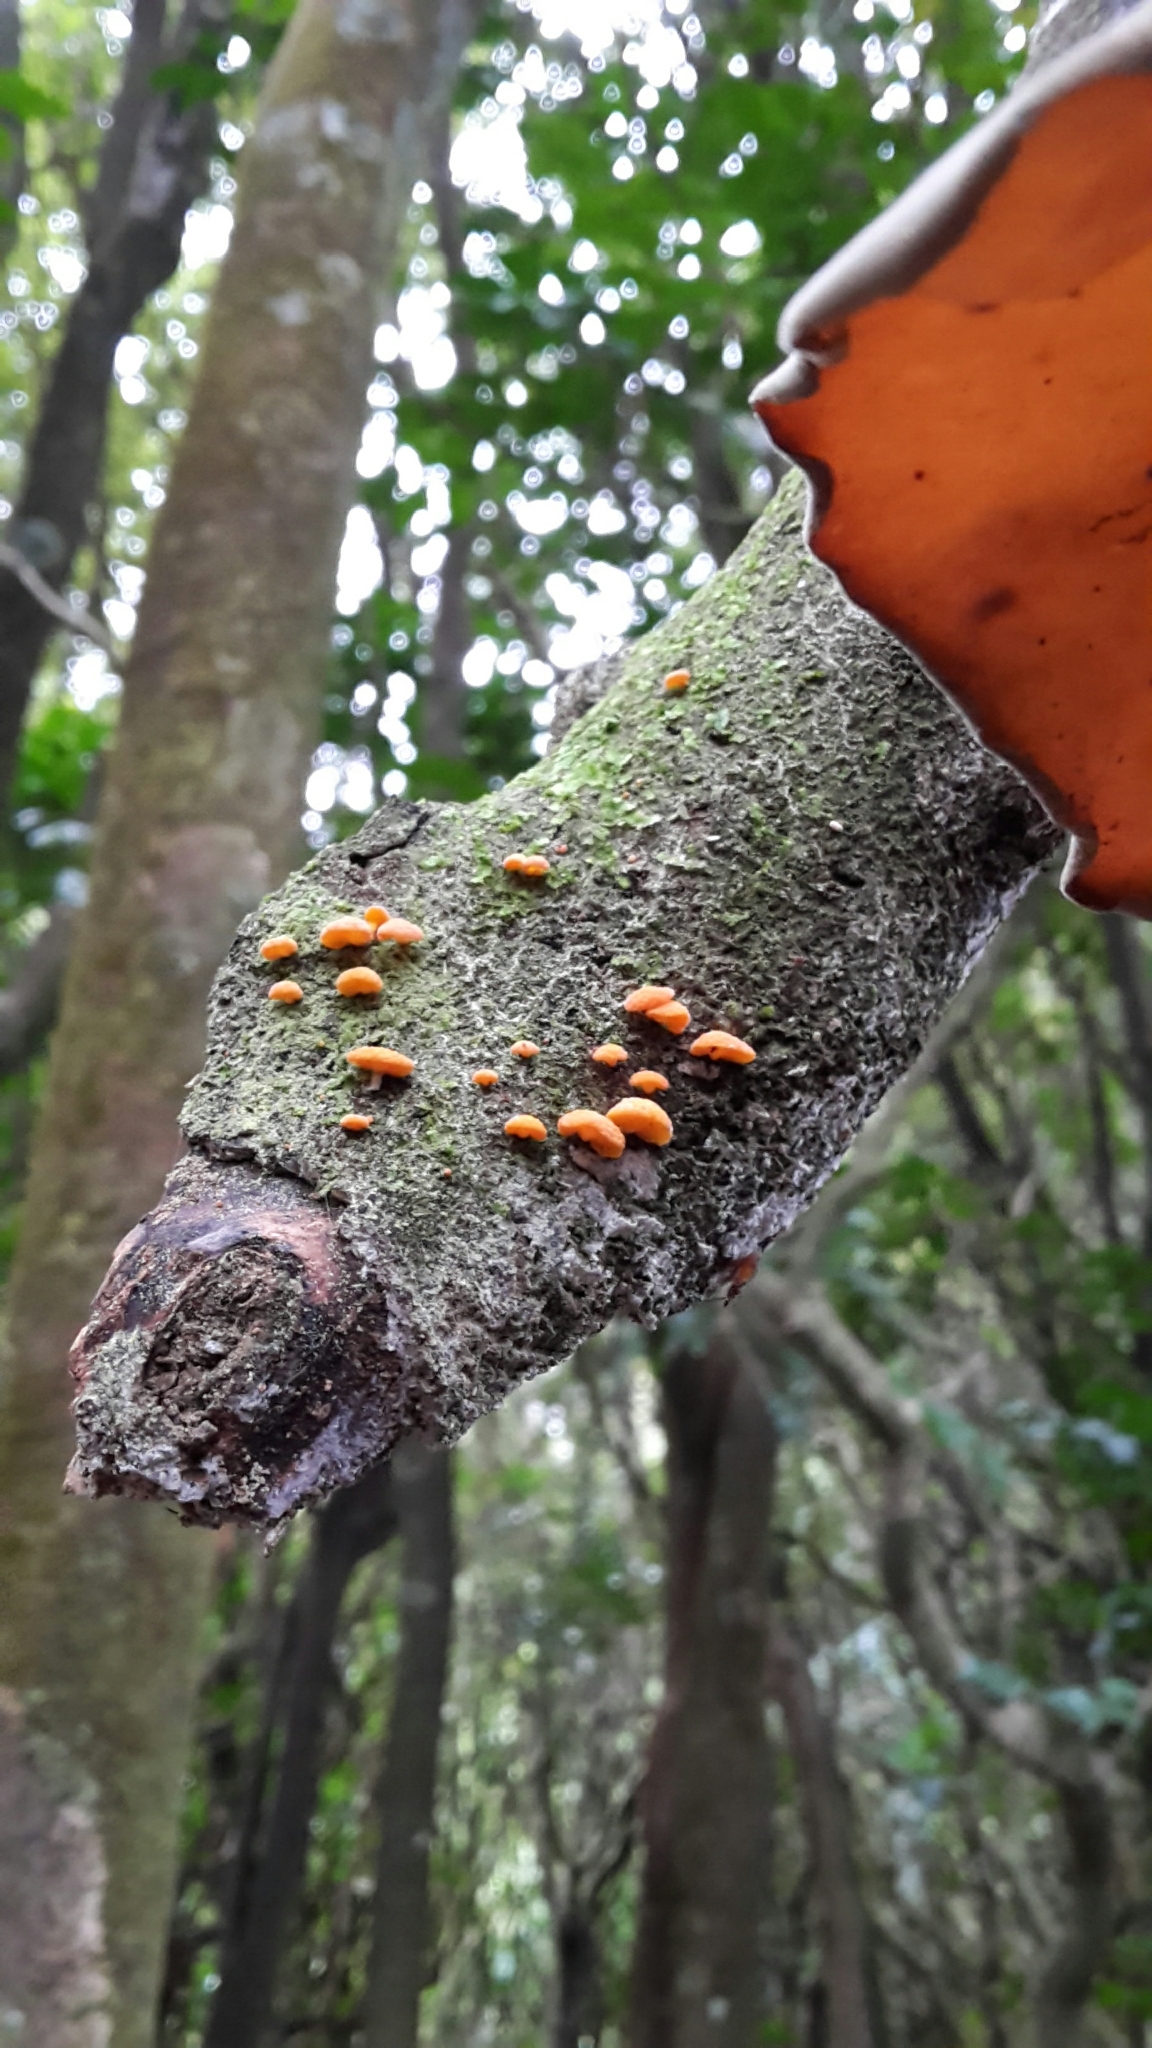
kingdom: Fungi
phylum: Basidiomycota
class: Agaricomycetes
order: Agaricales
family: Mycenaceae
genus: Favolaschia
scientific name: Favolaschia claudopus
